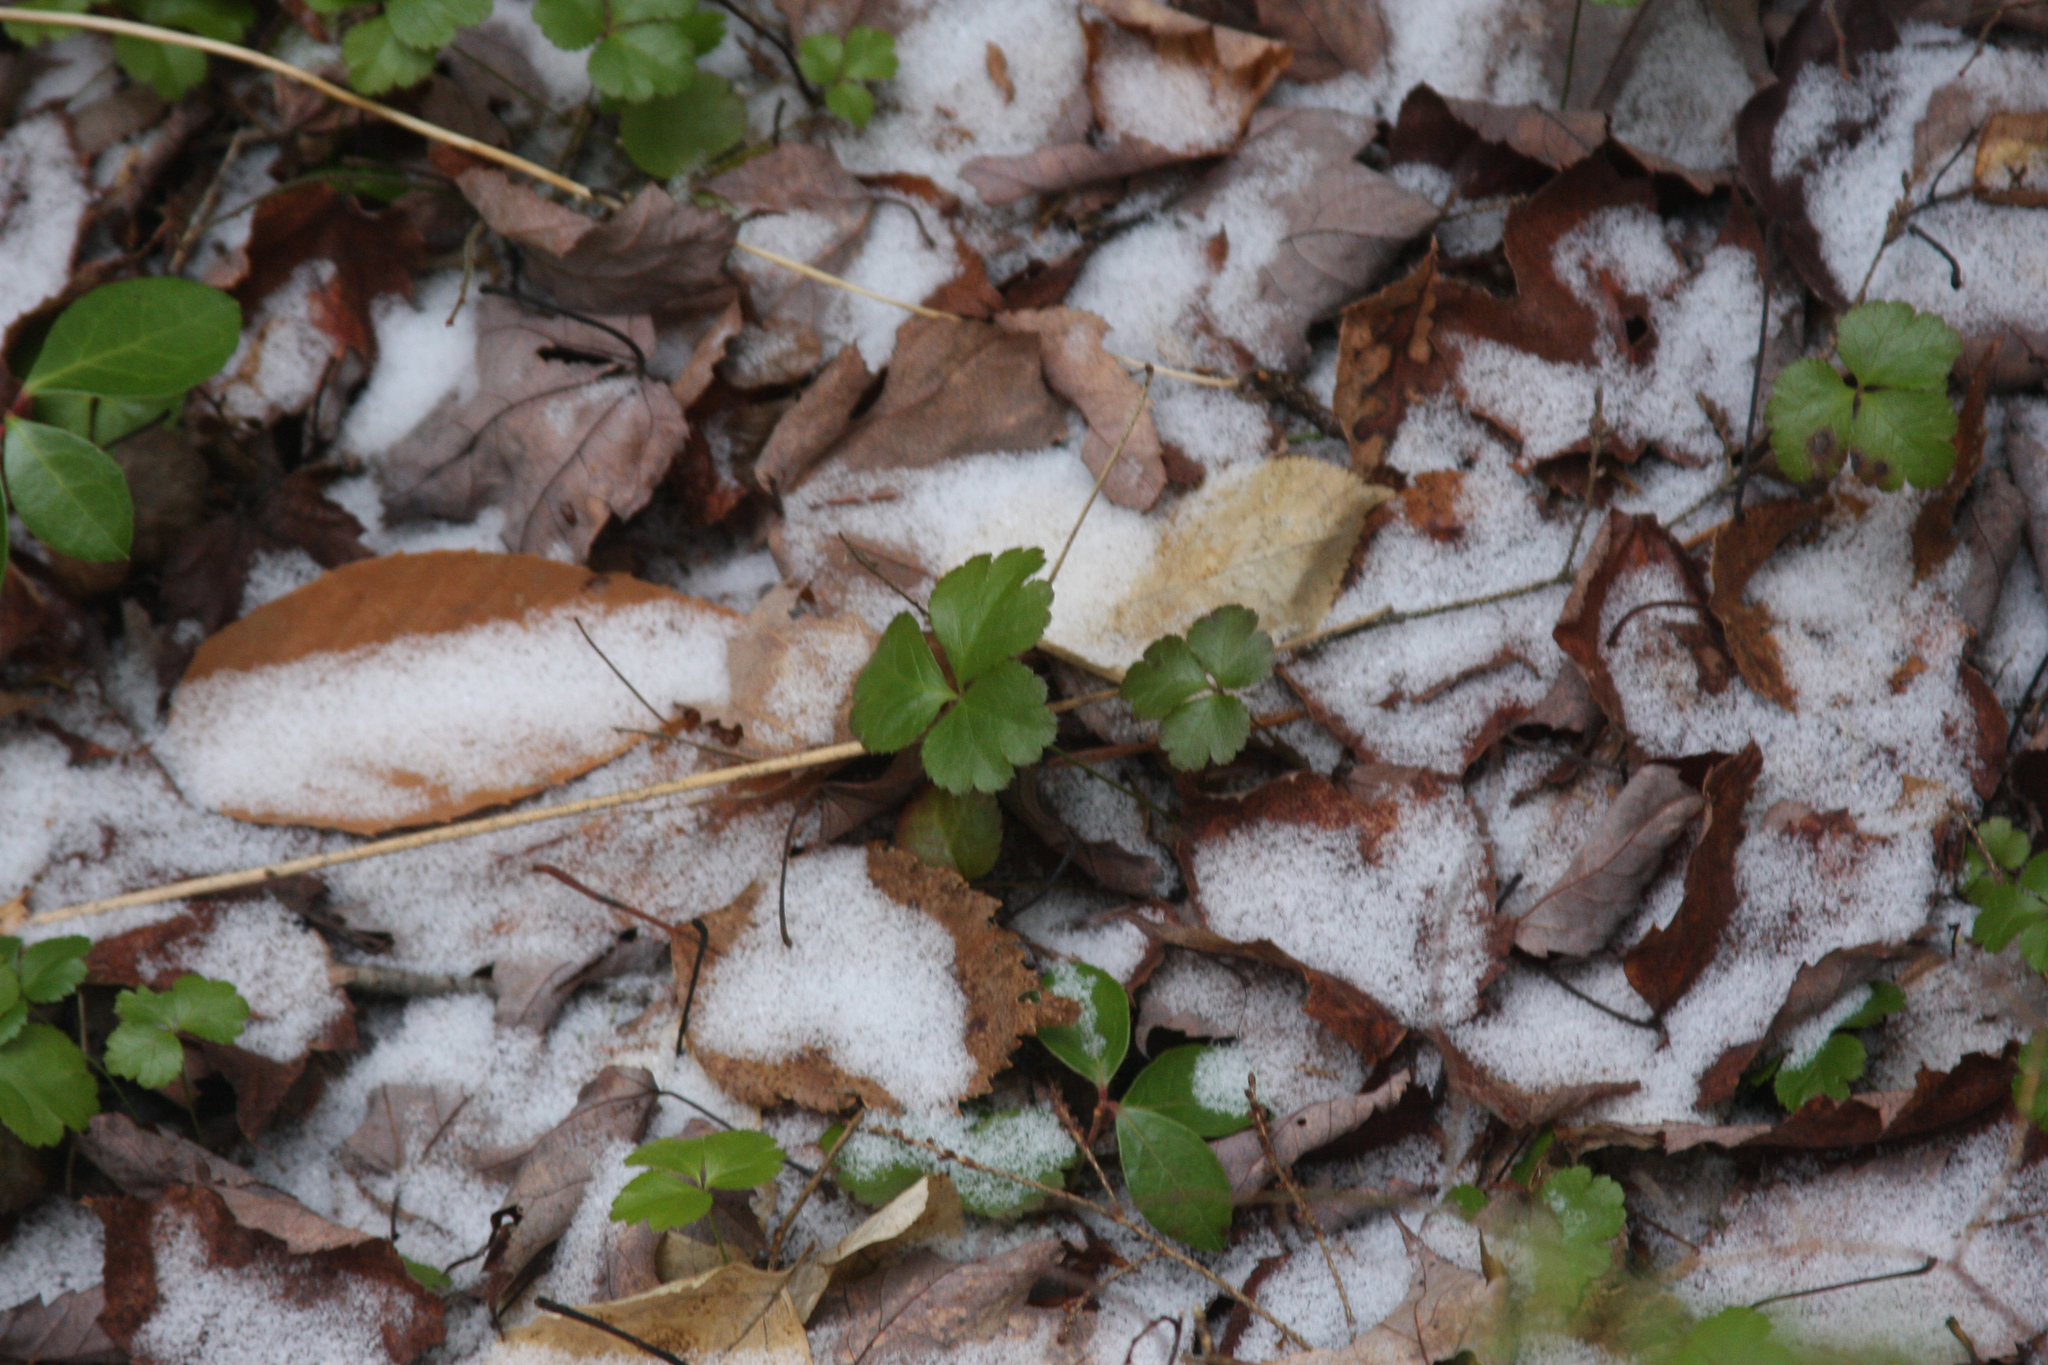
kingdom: Plantae
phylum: Tracheophyta
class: Magnoliopsida
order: Ranunculales
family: Ranunculaceae
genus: Coptis
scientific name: Coptis trifolia
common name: Canker-root
